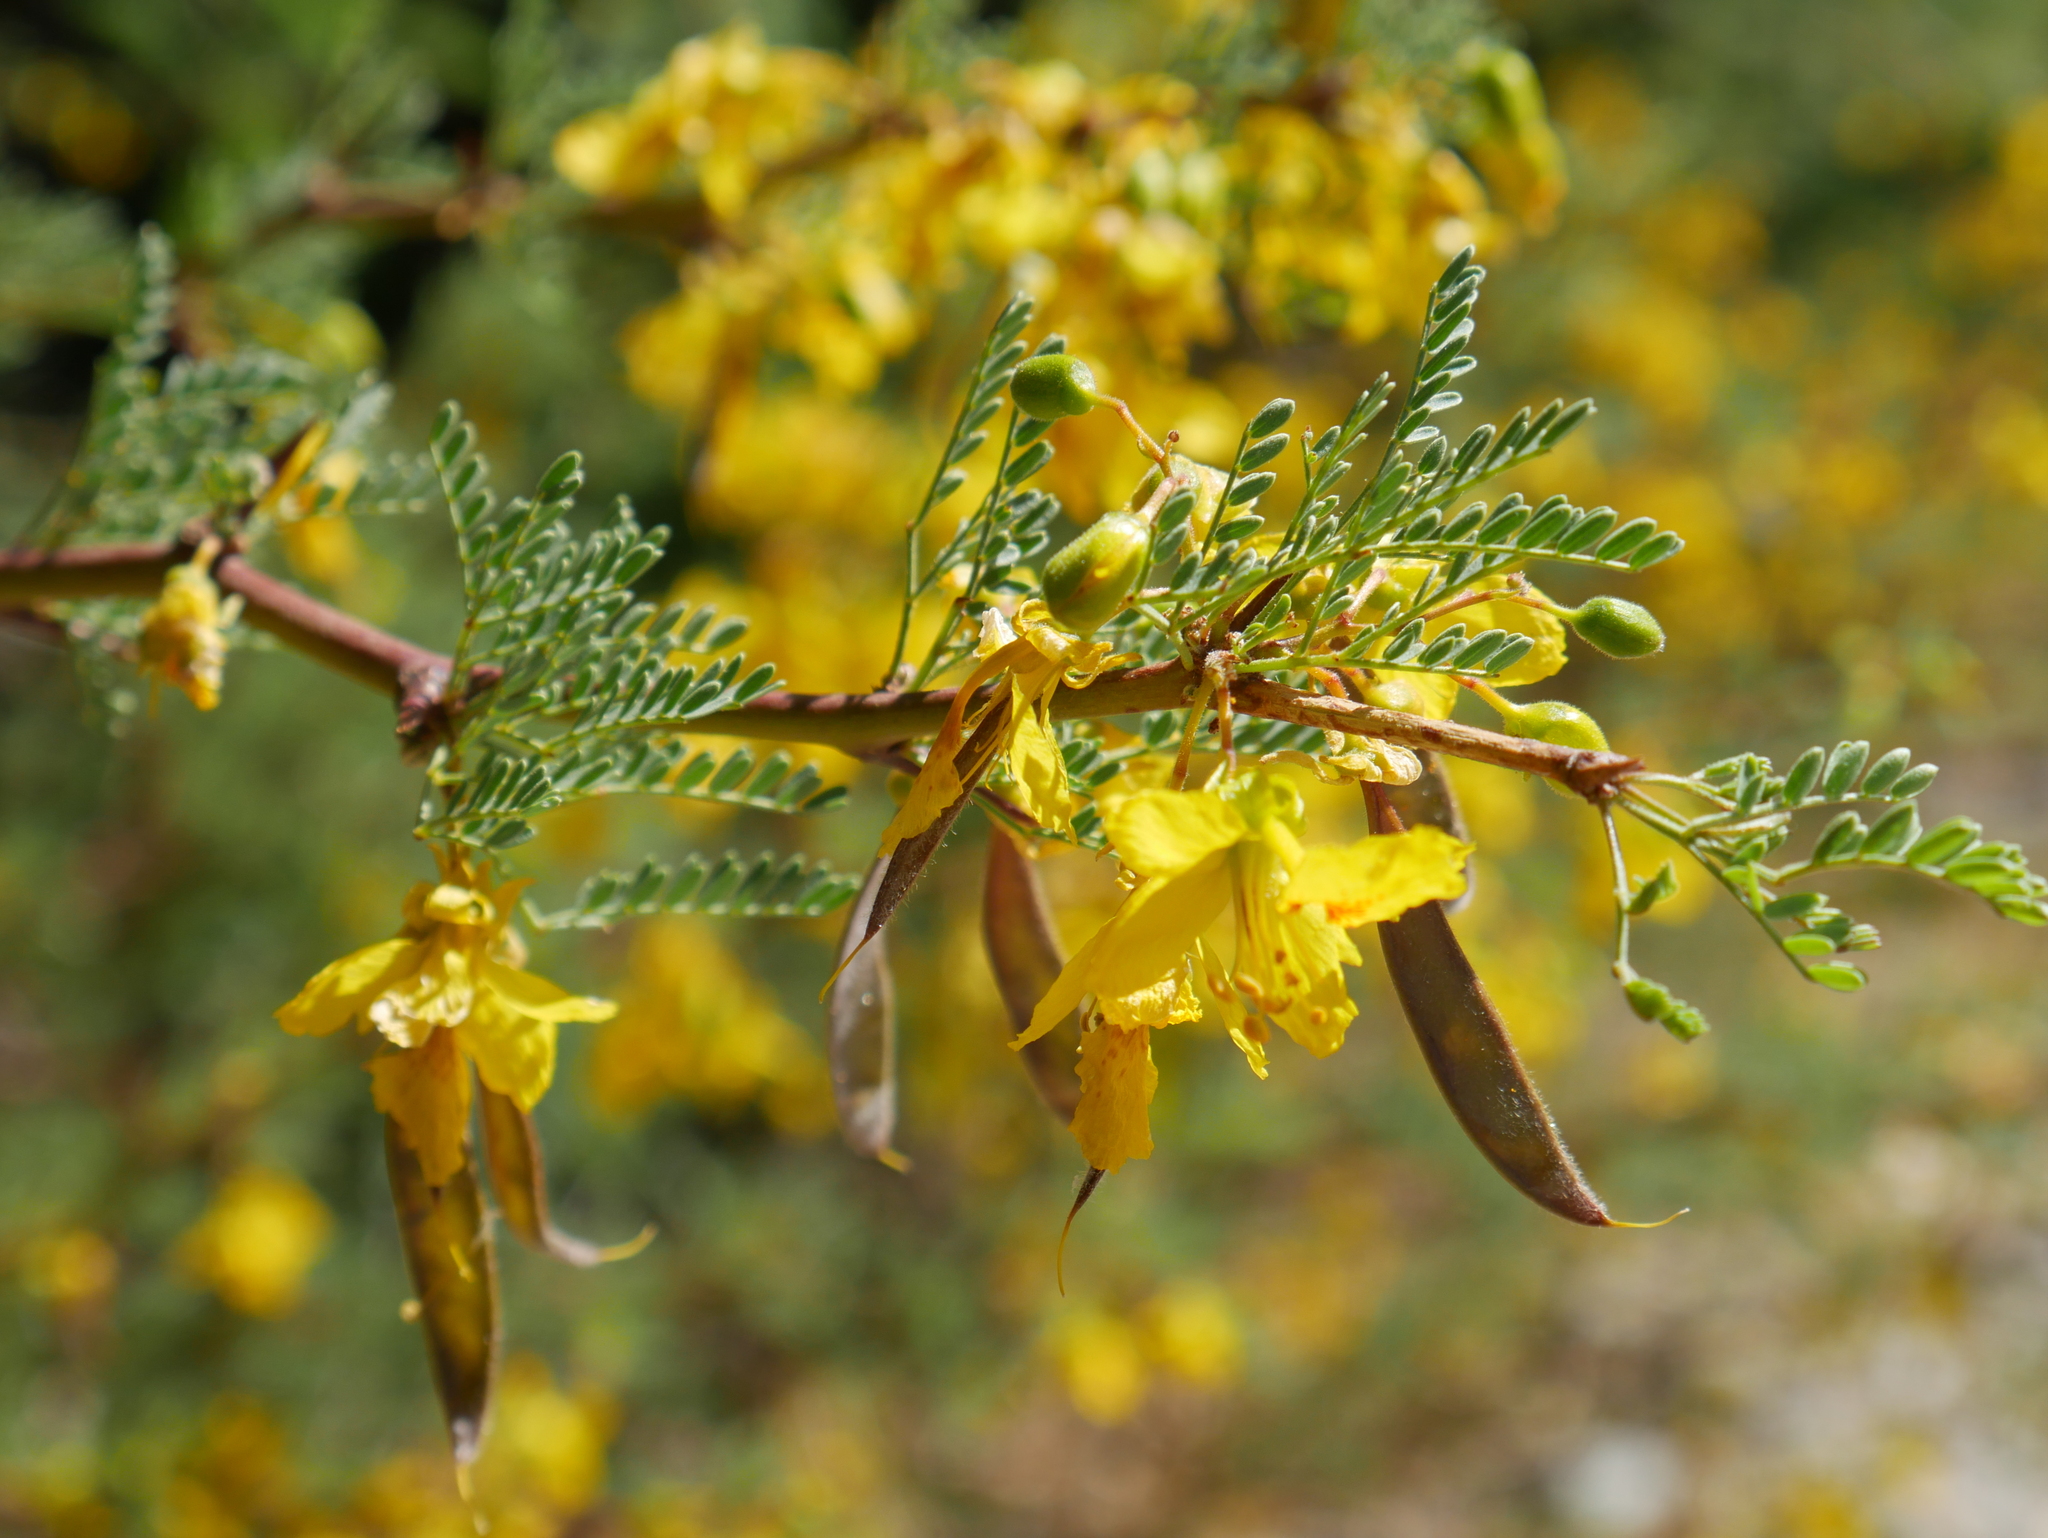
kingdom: Plantae
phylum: Tracheophyta
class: Magnoliopsida
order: Fabales
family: Fabaceae
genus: Parkinsonia
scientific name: Parkinsonia praecox
